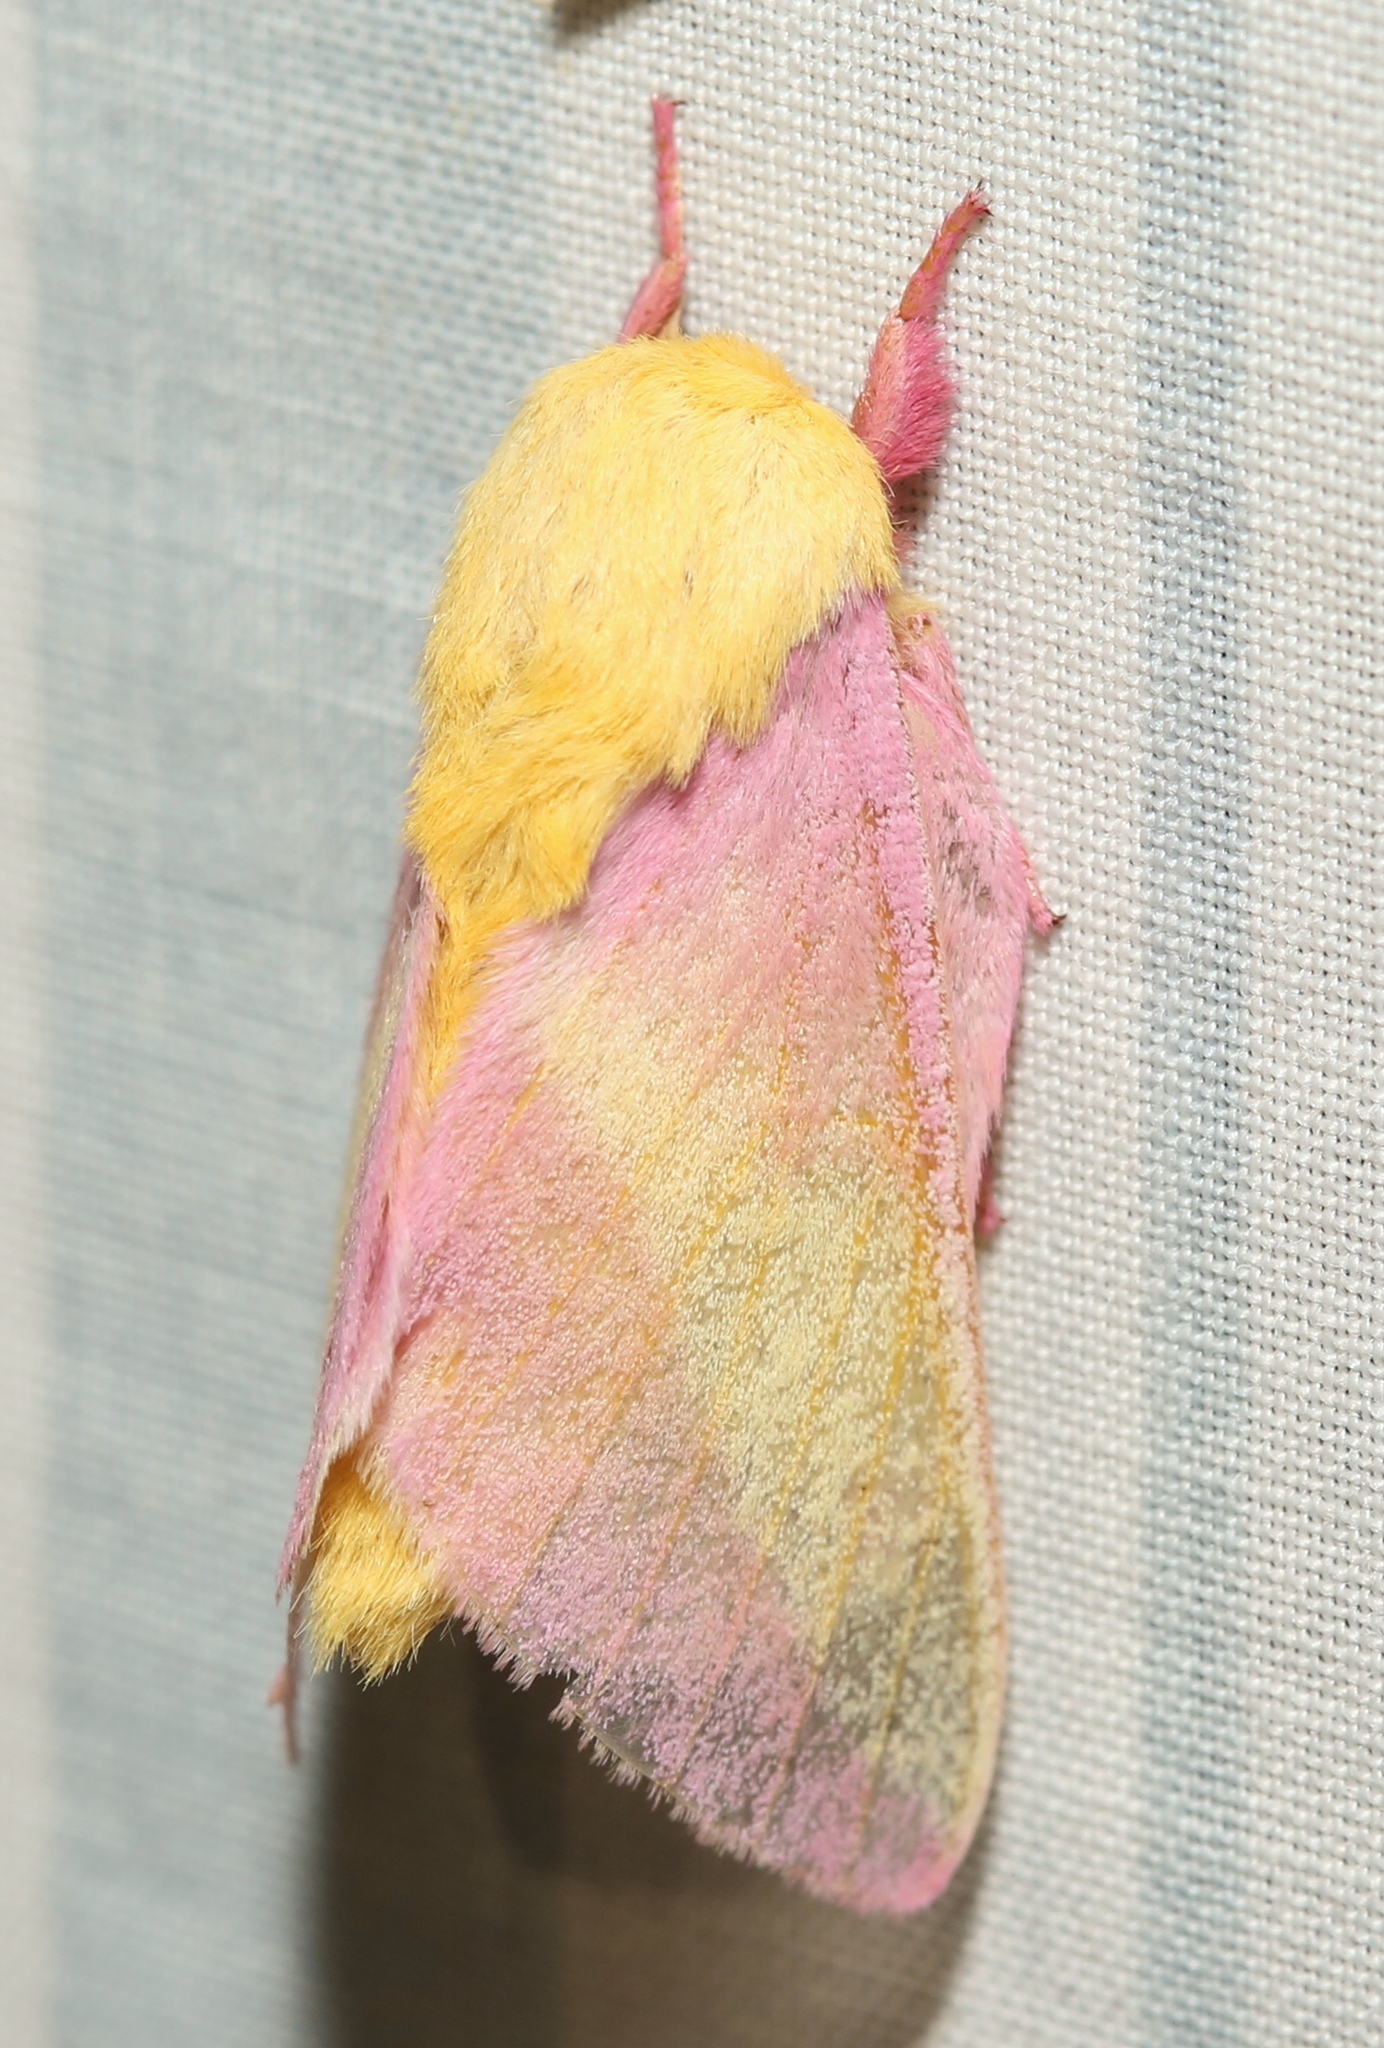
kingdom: Animalia
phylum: Arthropoda
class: Insecta
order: Lepidoptera
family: Saturniidae
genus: Dryocampa
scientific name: Dryocampa rubicunda
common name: Rosy maple moth
